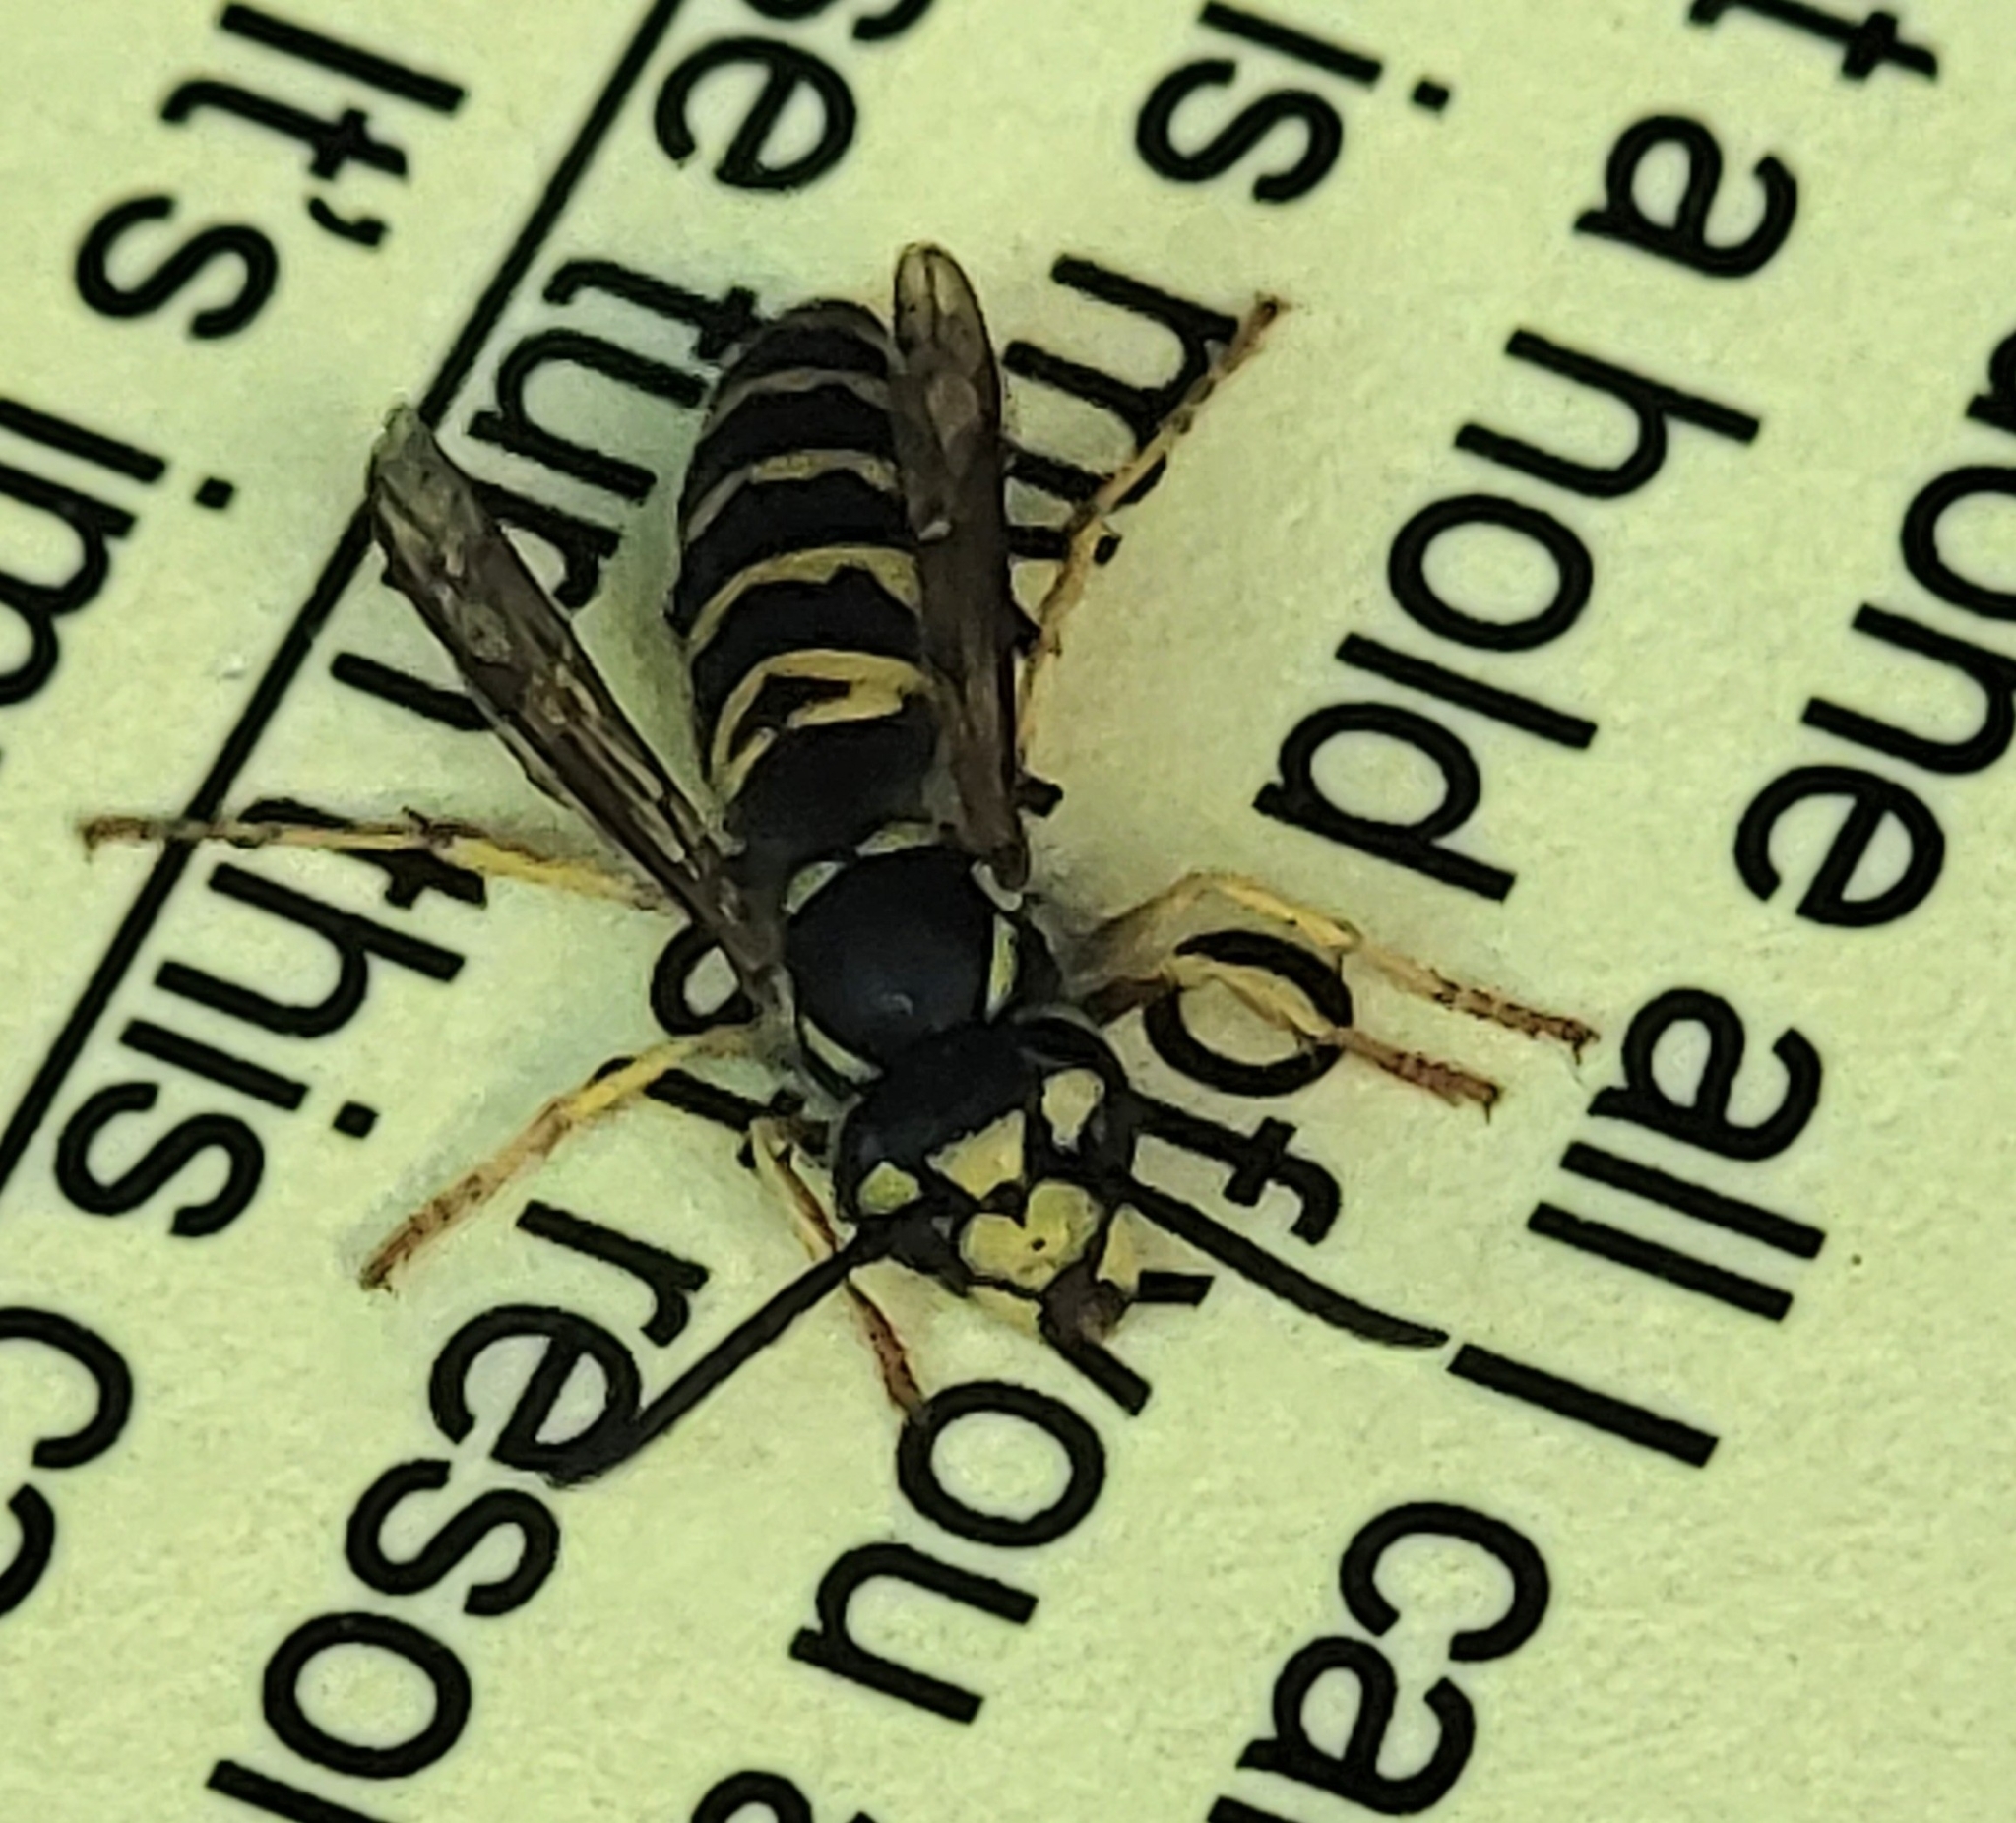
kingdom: Animalia
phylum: Arthropoda
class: Insecta
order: Hymenoptera
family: Vespidae
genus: Vespula
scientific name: Vespula maculifrons
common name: Eastern yellowjacket
